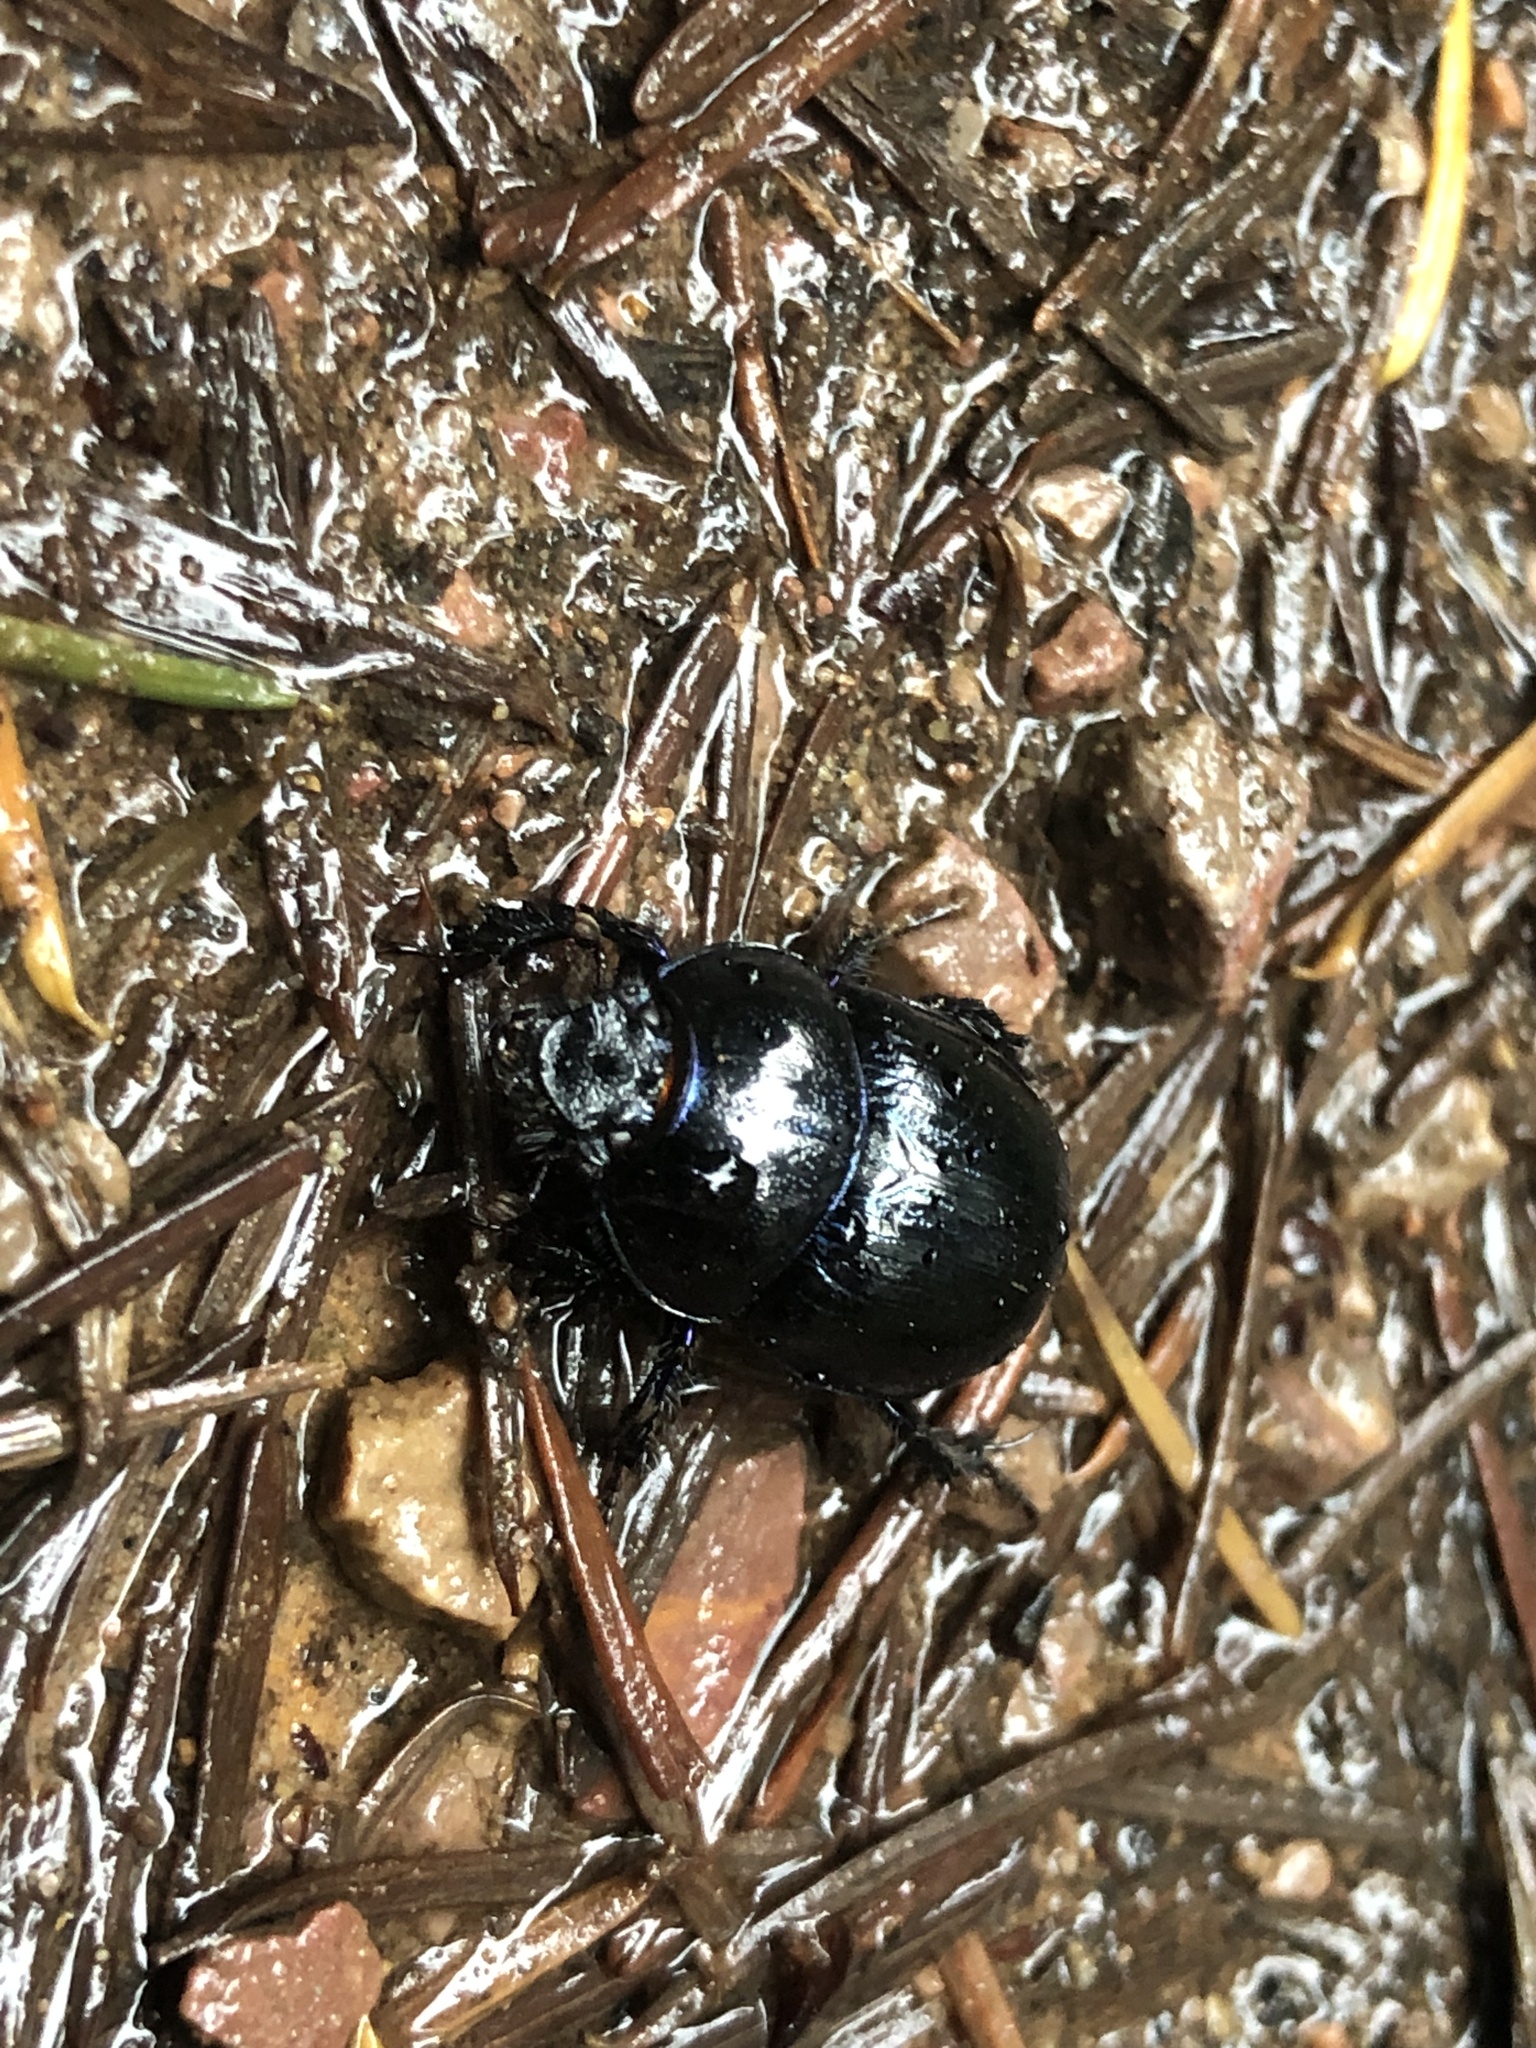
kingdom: Animalia
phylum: Arthropoda
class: Insecta
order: Coleoptera
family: Geotrupidae
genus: Anoplotrupes
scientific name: Anoplotrupes stercorosus
